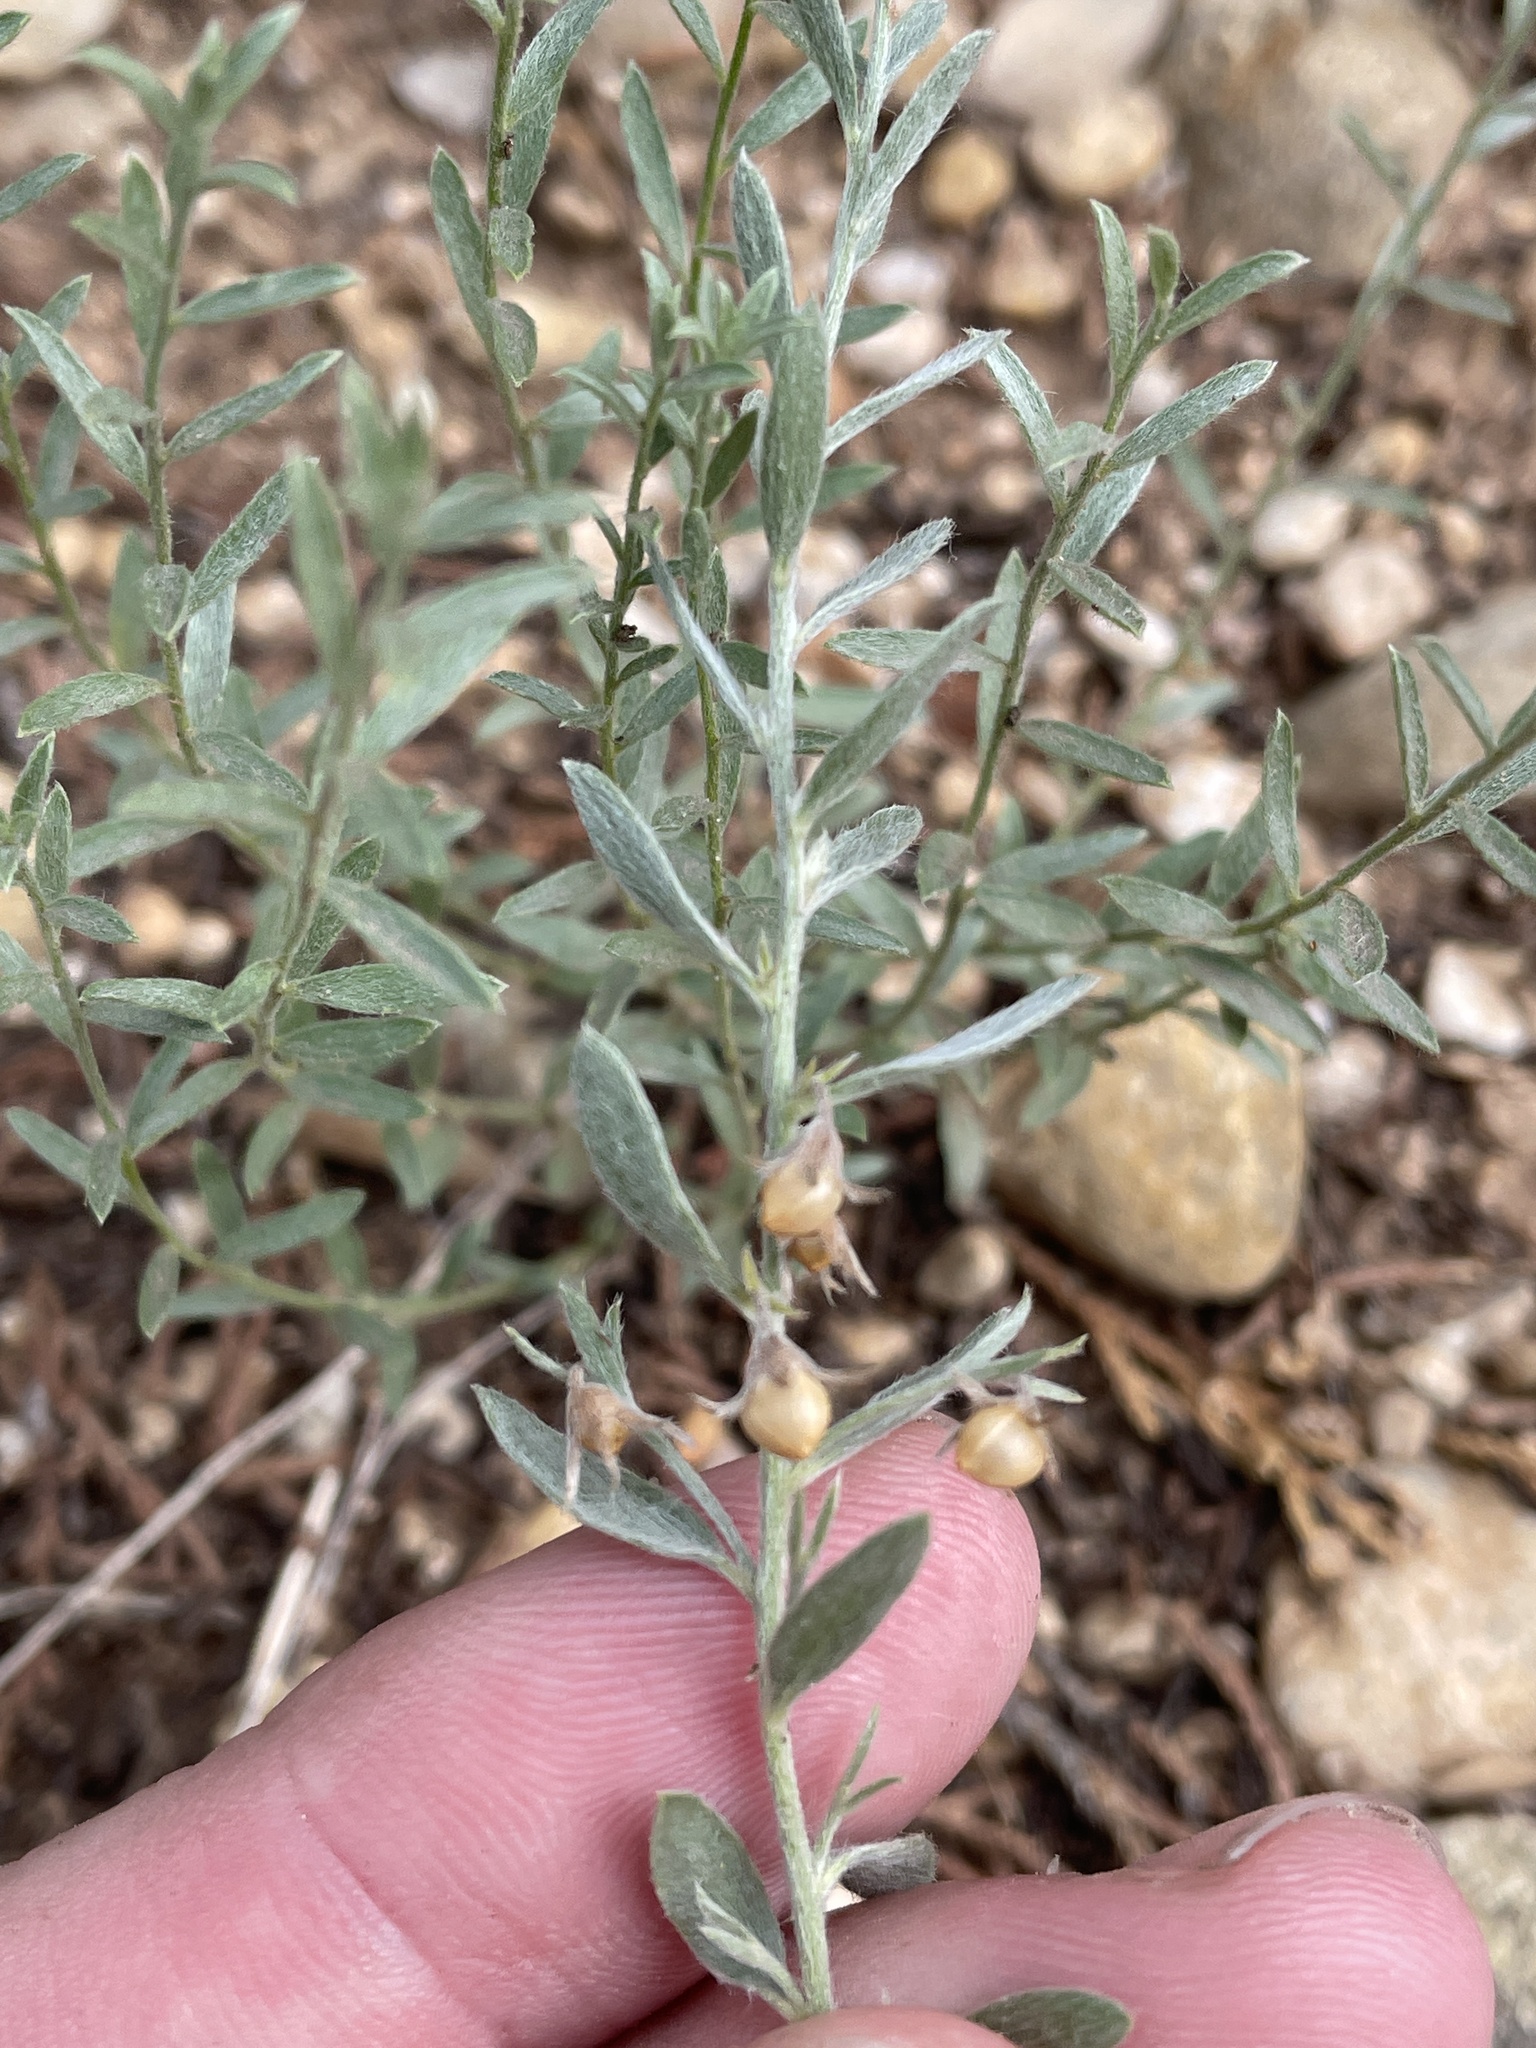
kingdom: Plantae
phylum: Tracheophyta
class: Magnoliopsida
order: Solanales
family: Convolvulaceae
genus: Evolvulus
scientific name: Evolvulus sericeus
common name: Blue dots
